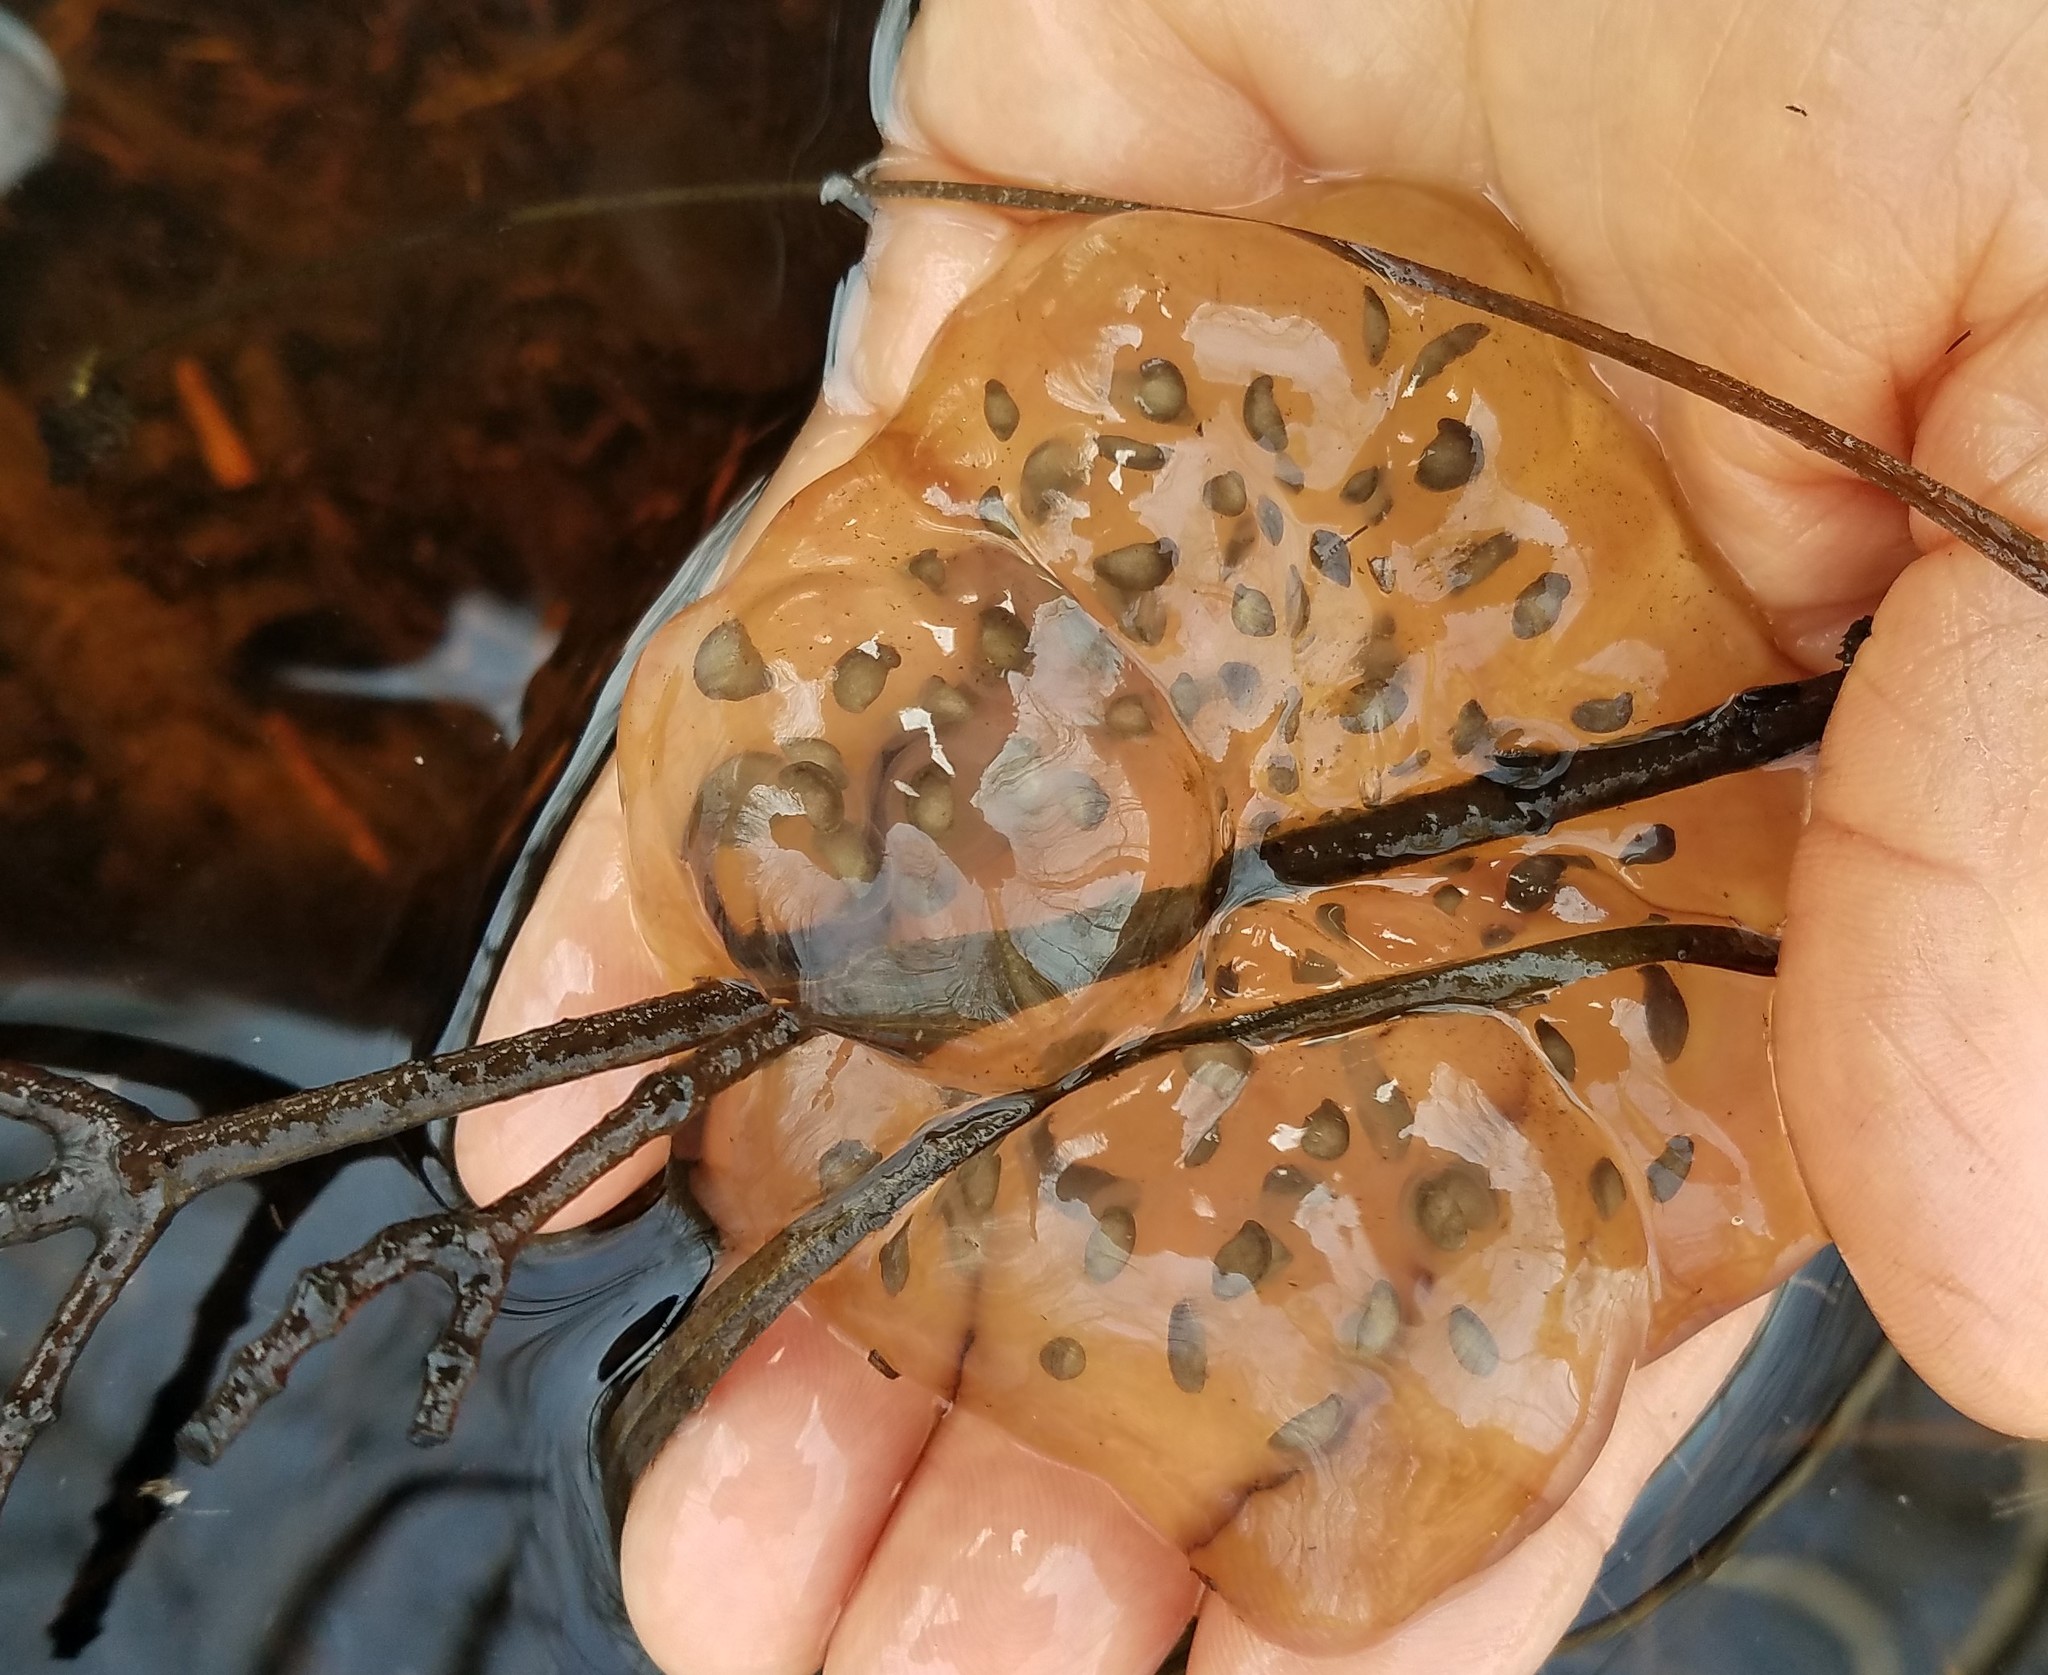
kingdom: Animalia
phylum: Chordata
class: Amphibia
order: Caudata
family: Ambystomatidae
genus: Ambystoma
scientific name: Ambystoma maculatum
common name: Spotted salamander
